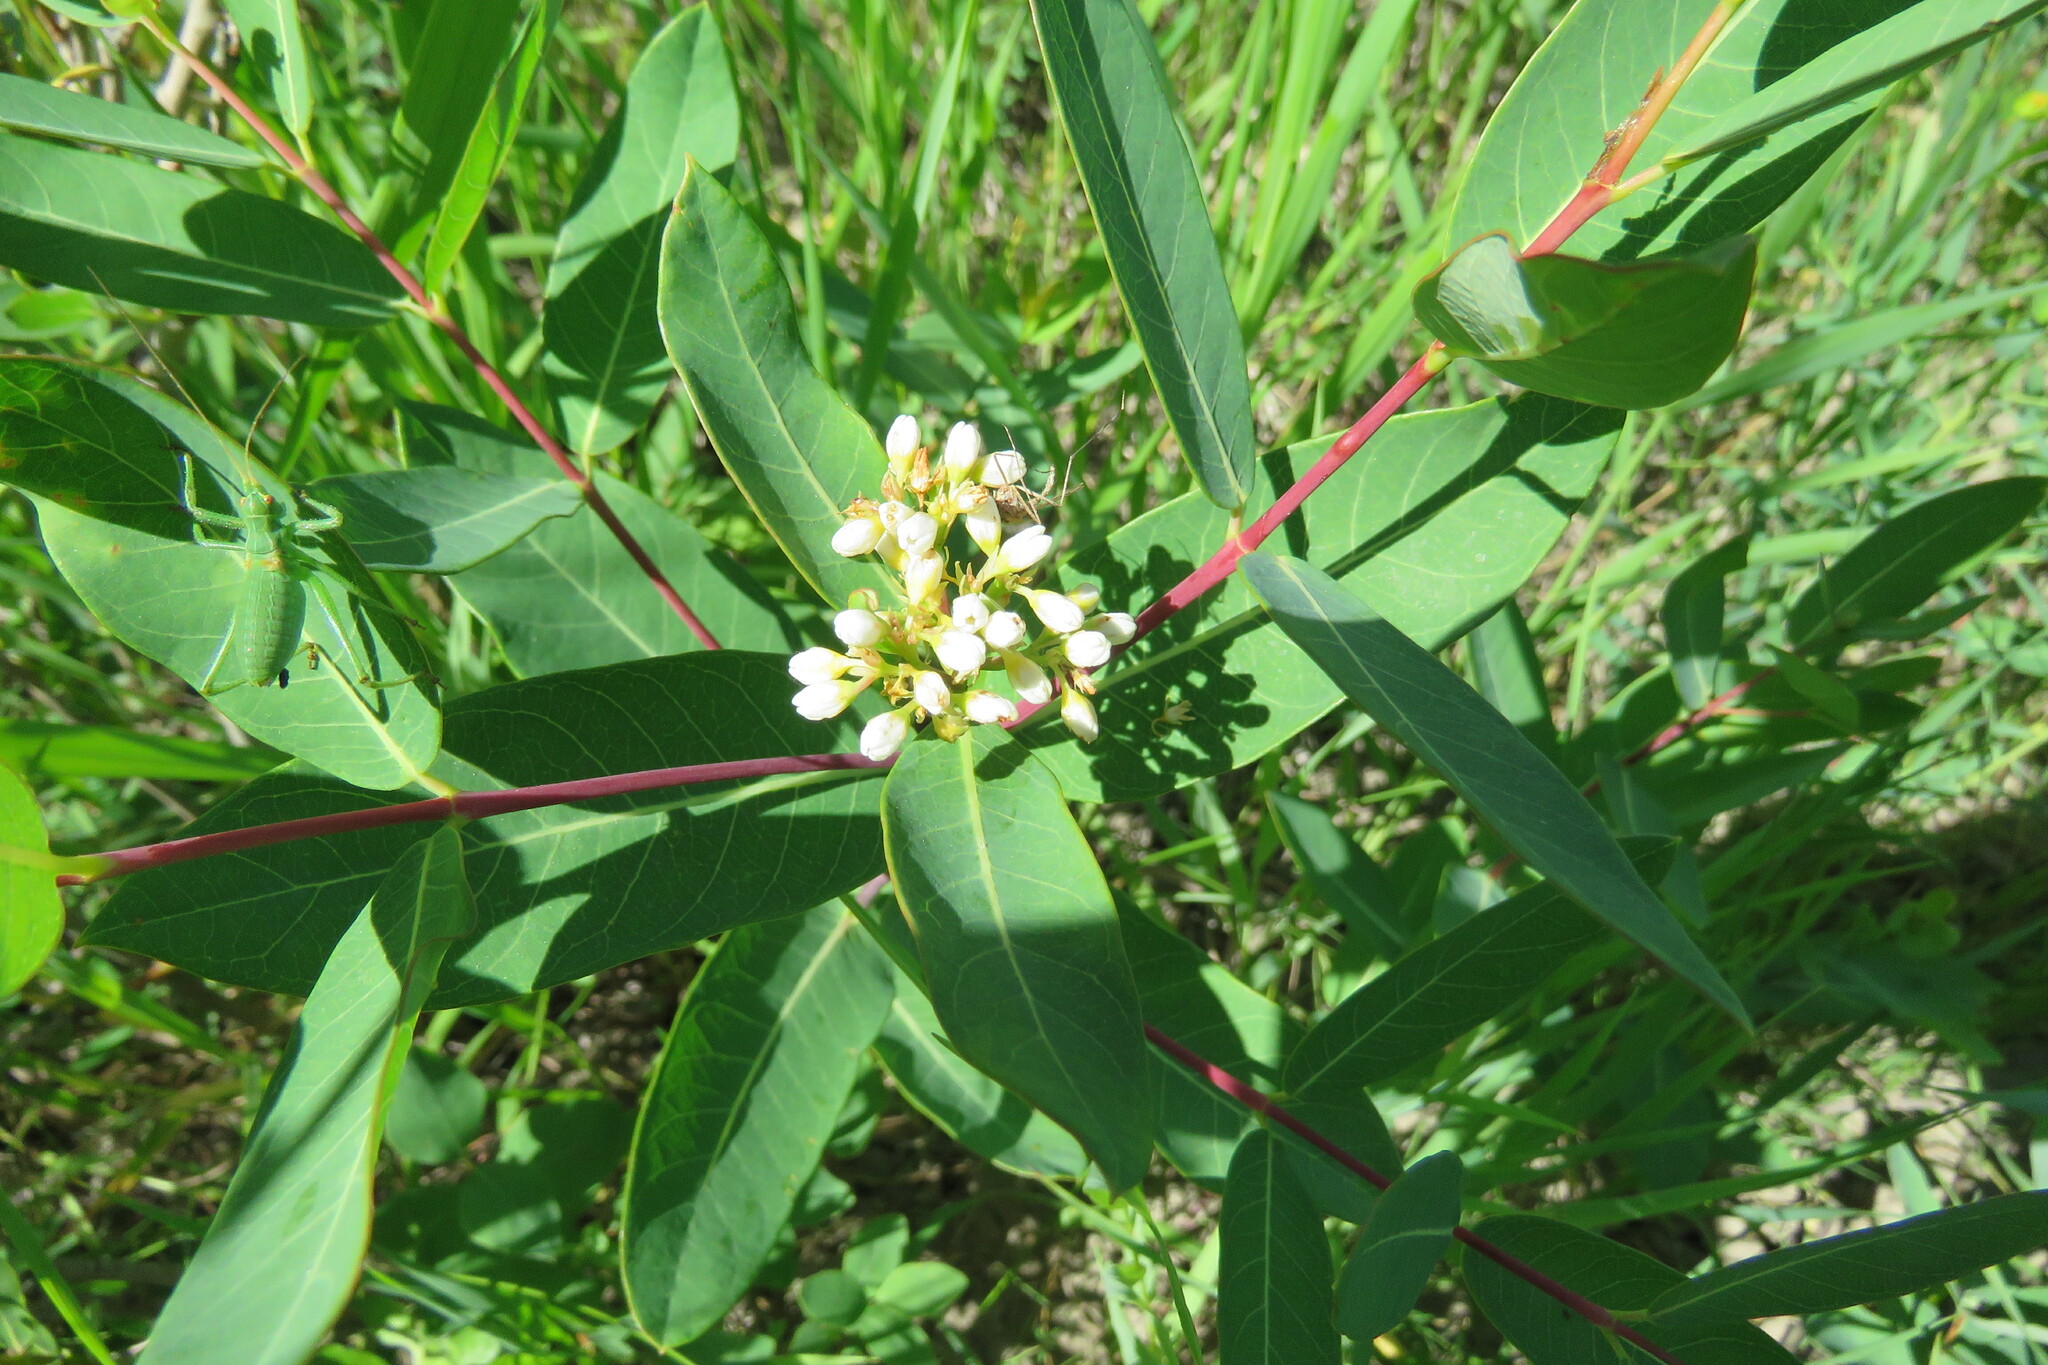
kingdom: Plantae
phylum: Tracheophyta
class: Magnoliopsida
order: Gentianales
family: Apocynaceae
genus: Apocynum
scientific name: Apocynum cannabinum
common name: Hemp dogbane
